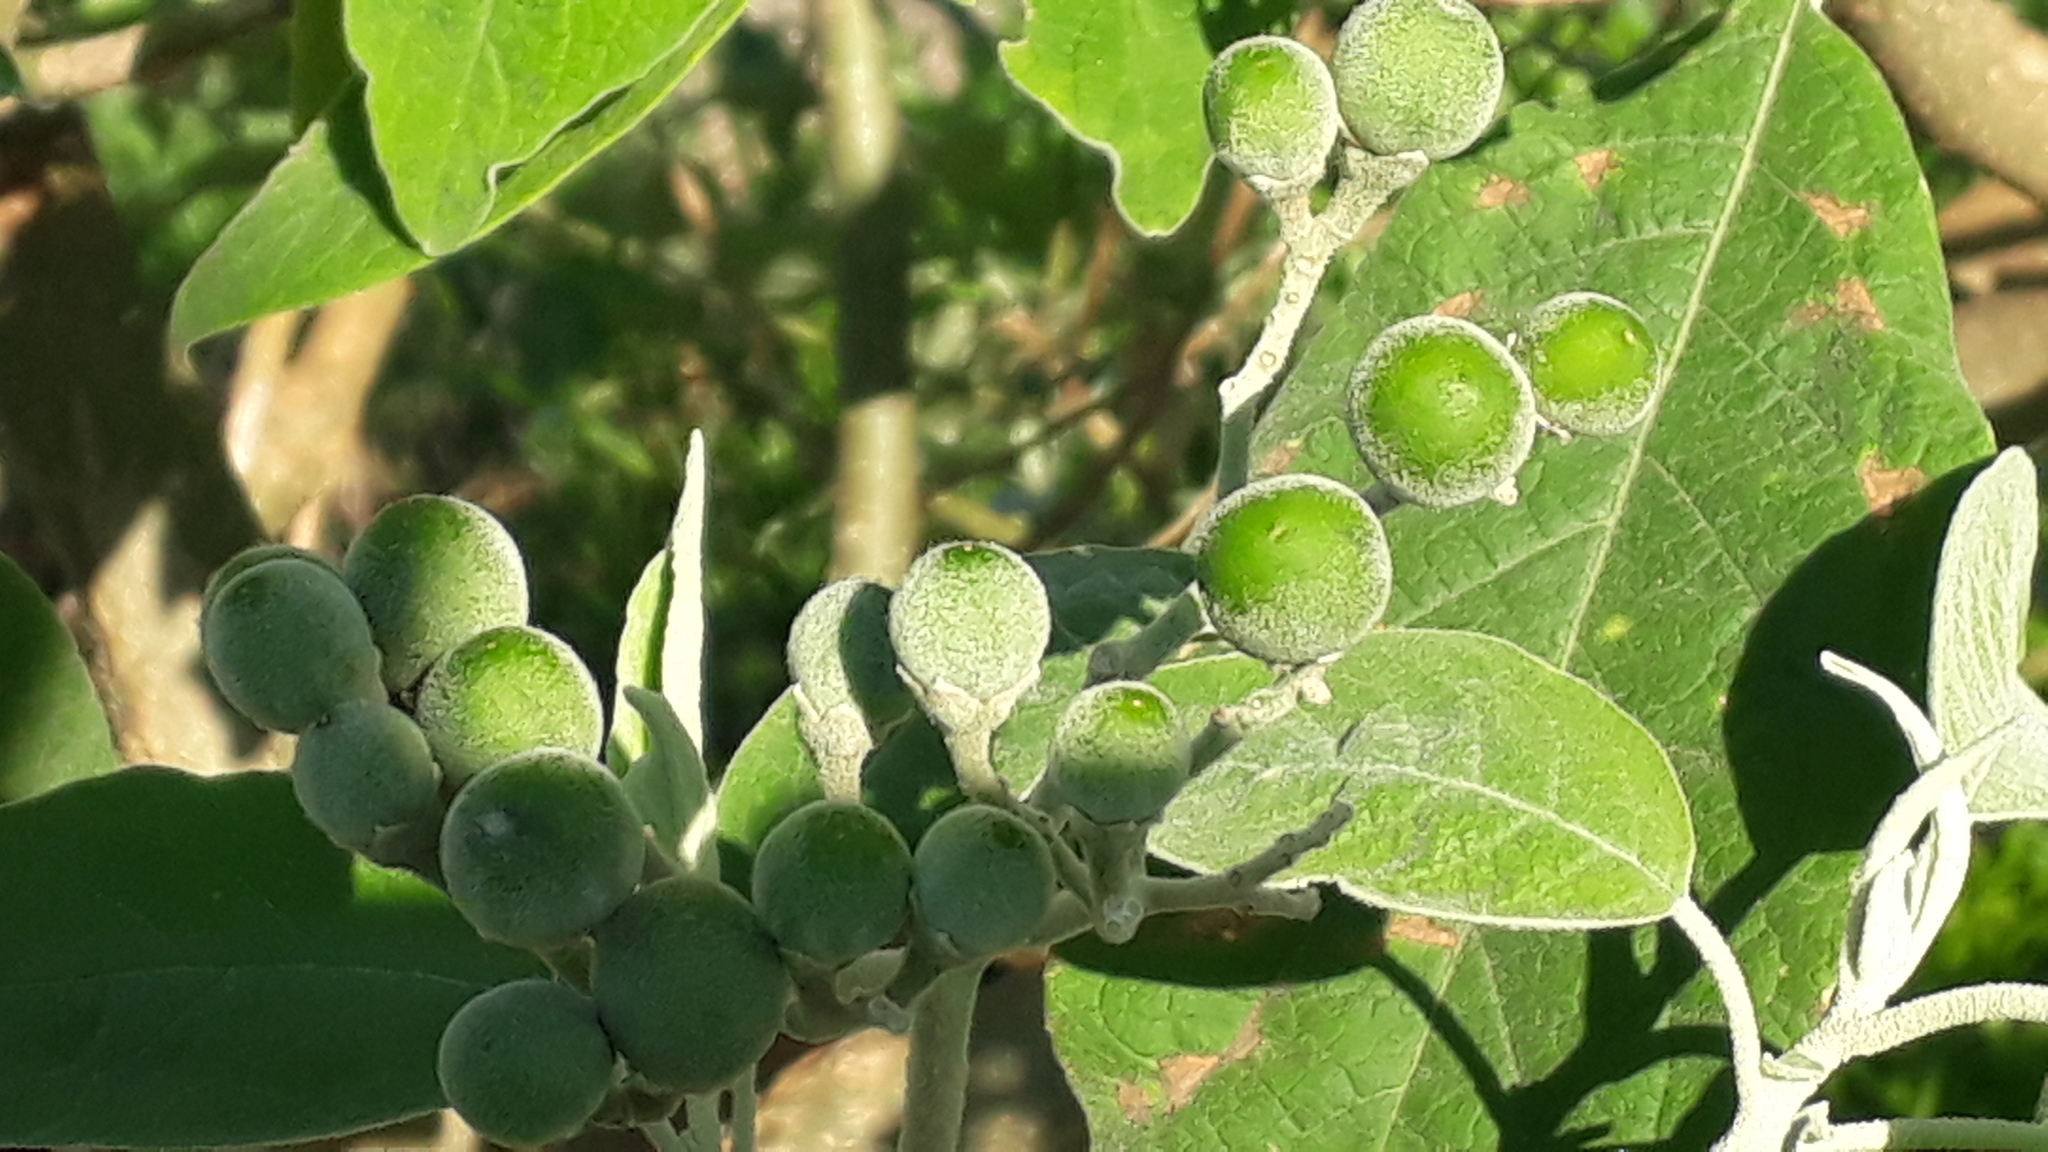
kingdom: Plantae
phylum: Tracheophyta
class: Magnoliopsida
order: Solanales
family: Solanaceae
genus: Solanum
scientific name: Solanum mauritianum
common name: Earleaf nightshade
